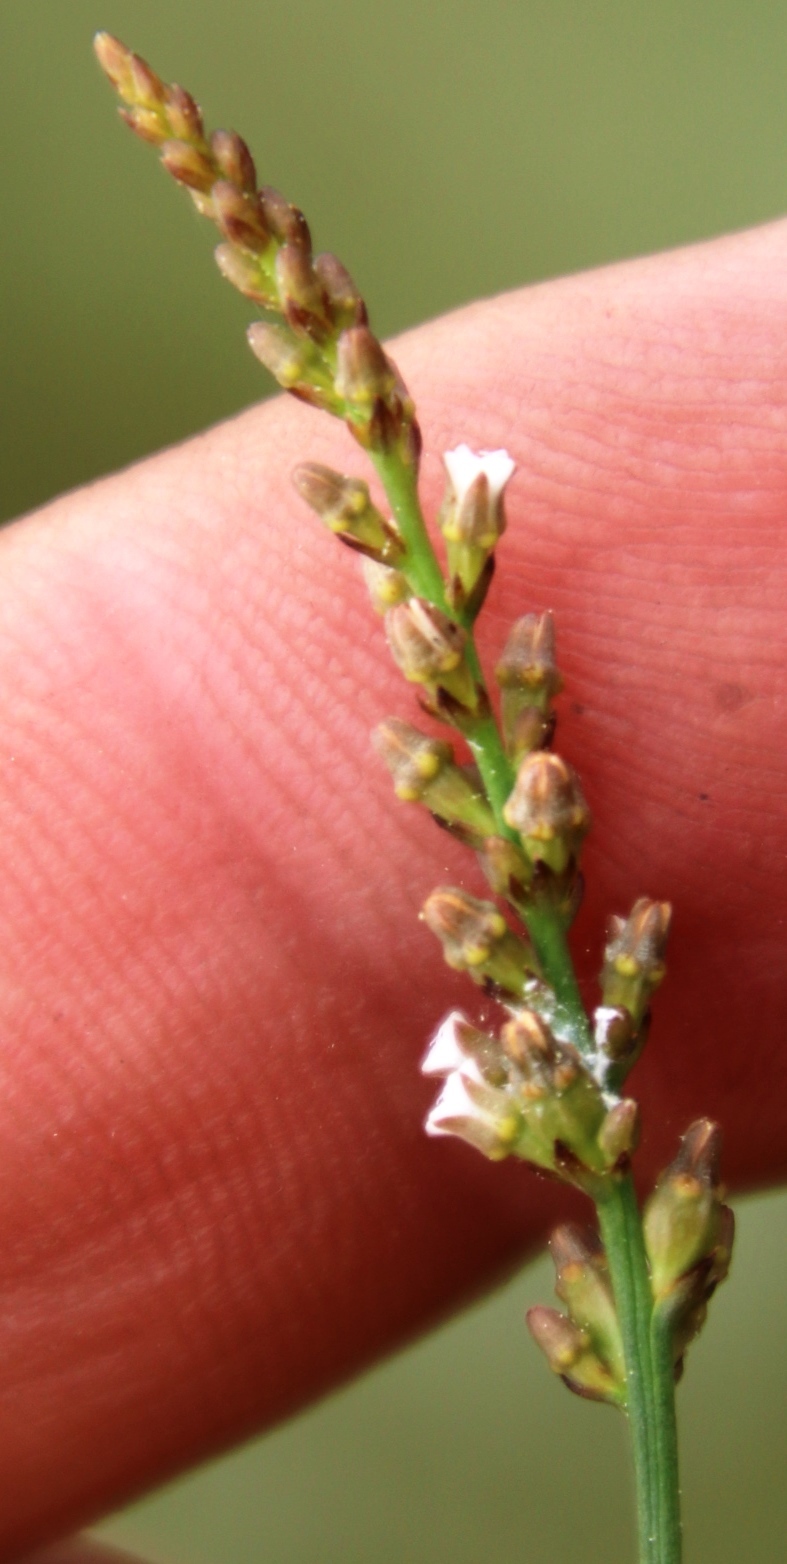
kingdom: Plantae
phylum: Tracheophyta
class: Magnoliopsida
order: Santalales
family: Thesiaceae
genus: Thesium
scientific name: Thesium funale
